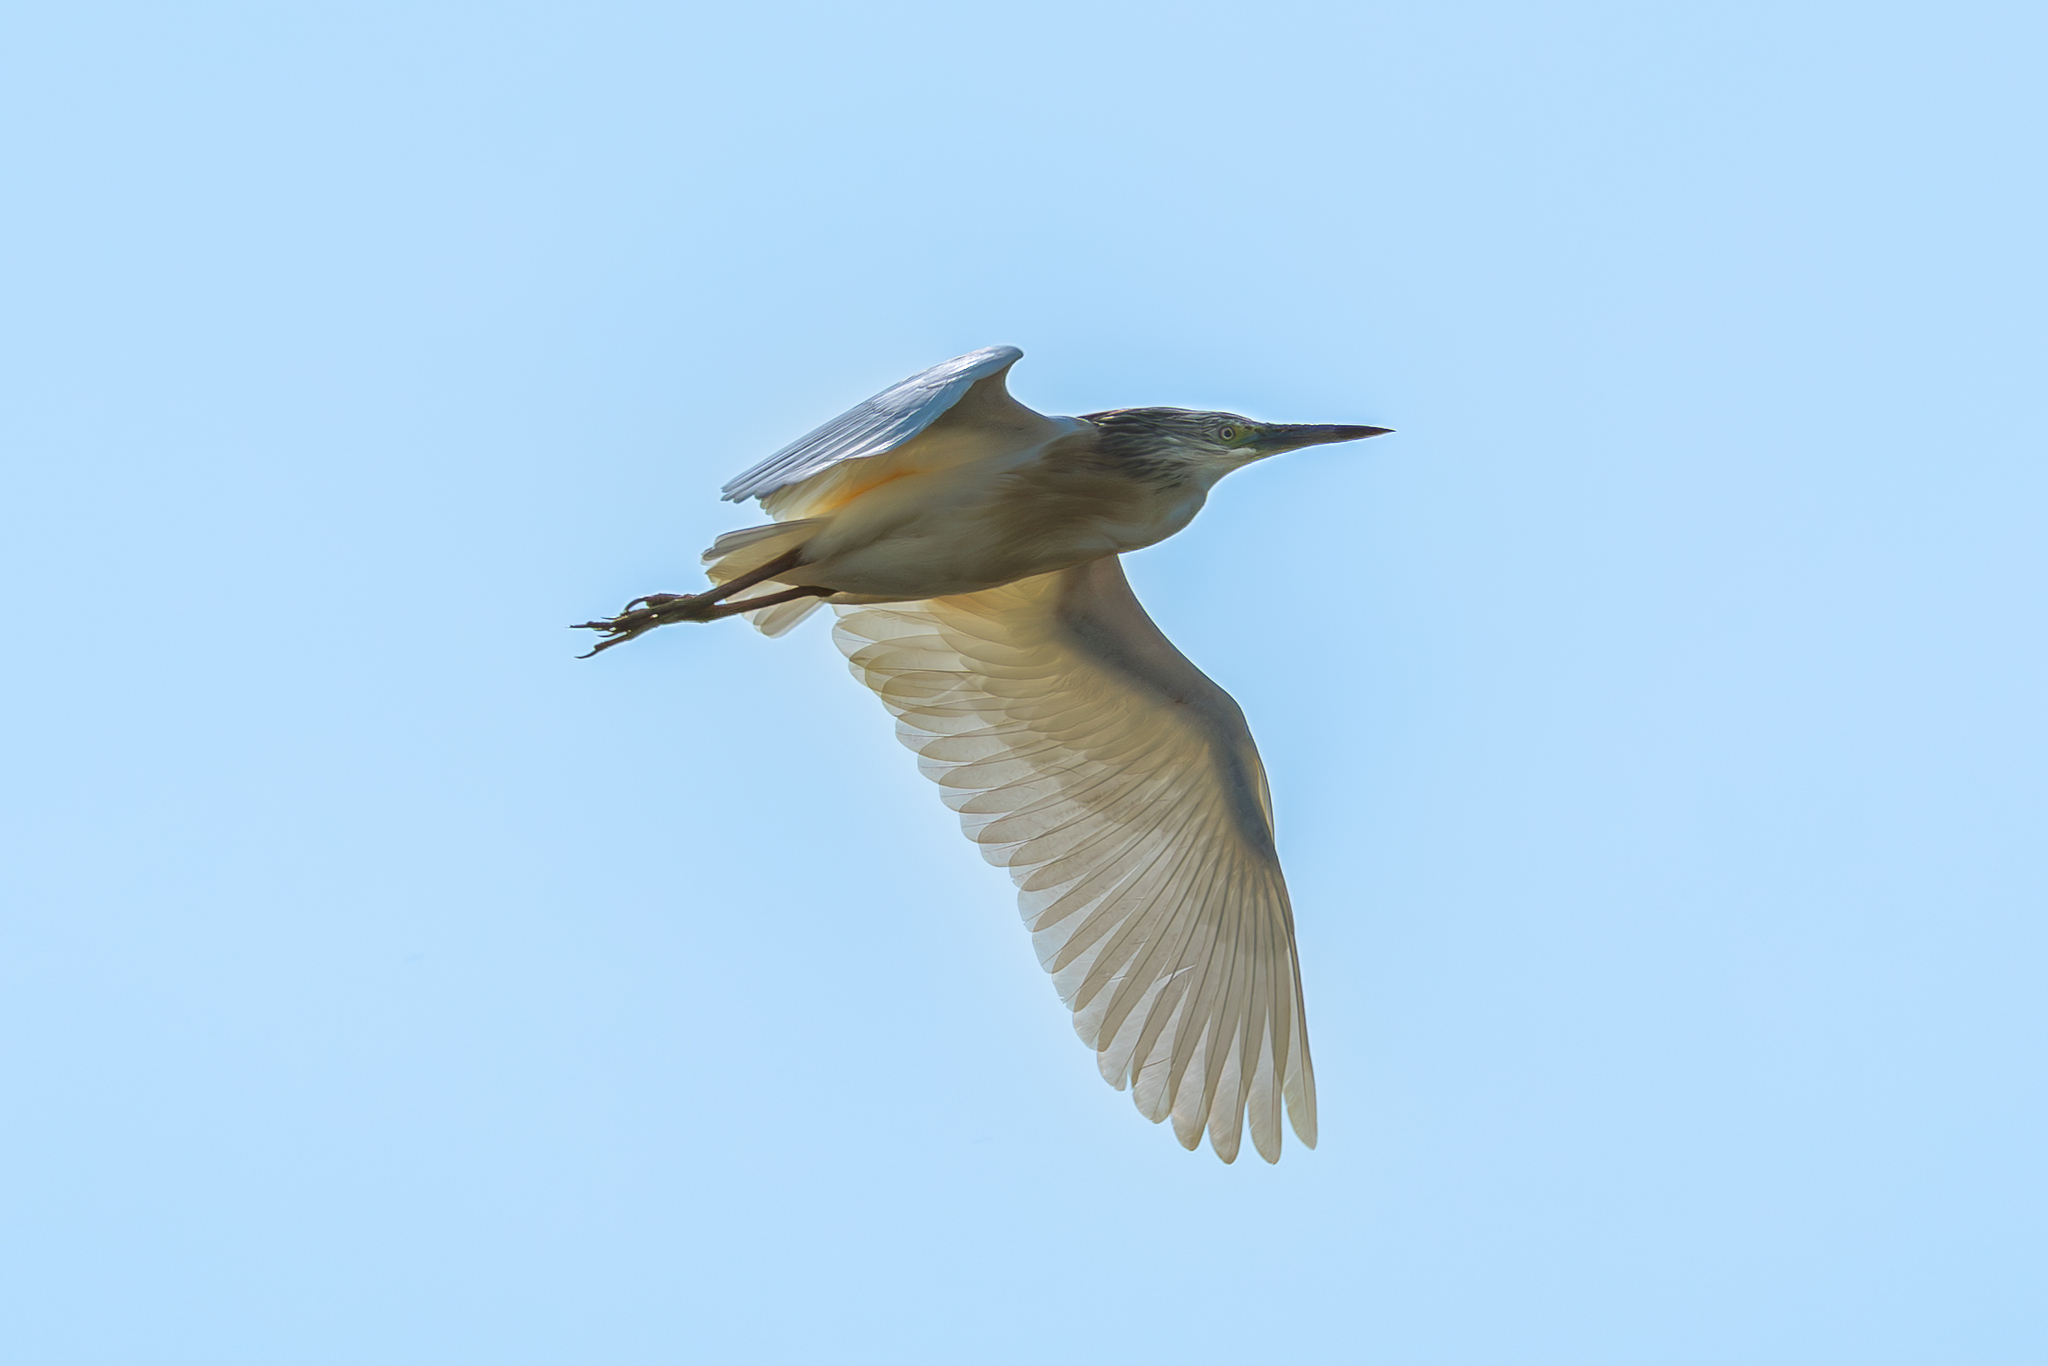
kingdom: Animalia
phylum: Chordata
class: Aves
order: Pelecaniformes
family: Ardeidae
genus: Ardeola
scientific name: Ardeola ralloides
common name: Squacco heron
